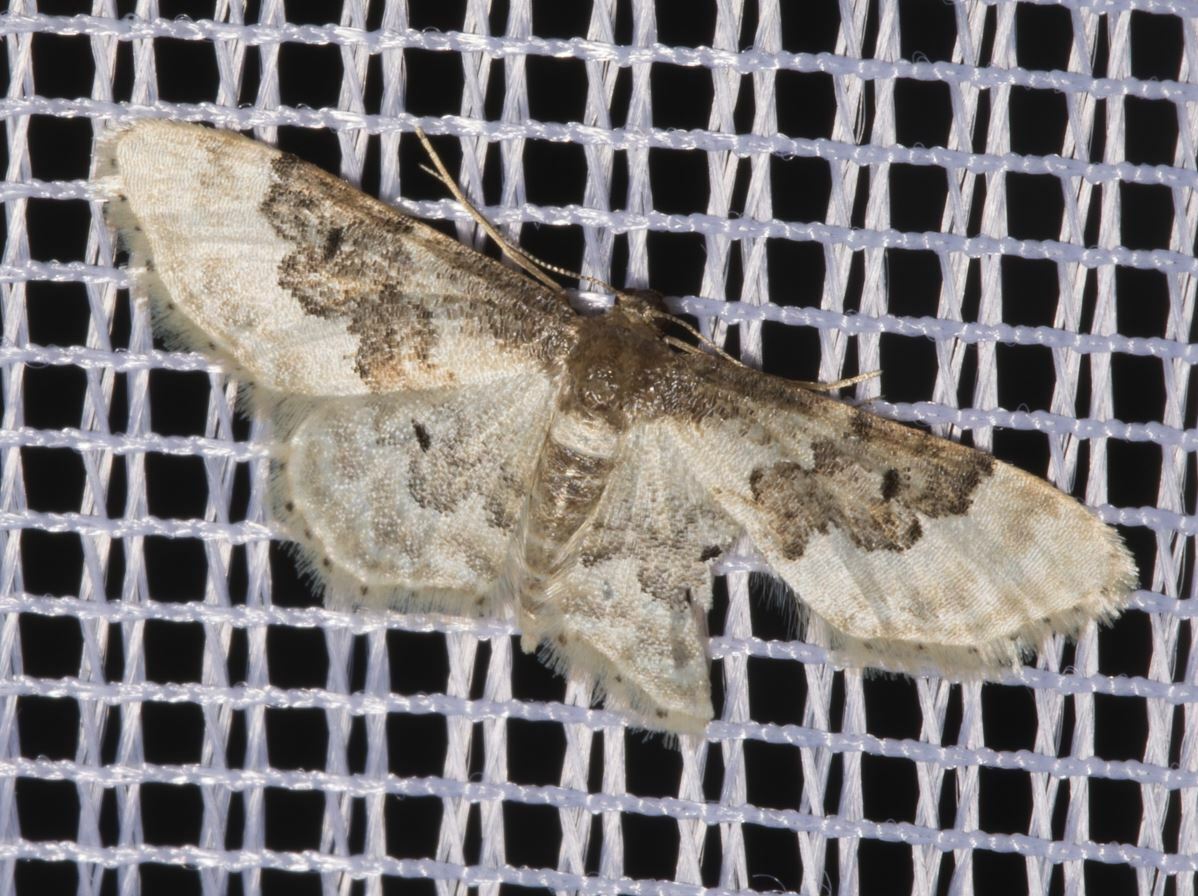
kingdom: Animalia
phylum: Arthropoda
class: Insecta
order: Lepidoptera
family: Geometridae
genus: Idaea
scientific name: Idaea rusticata
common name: Least carpet
